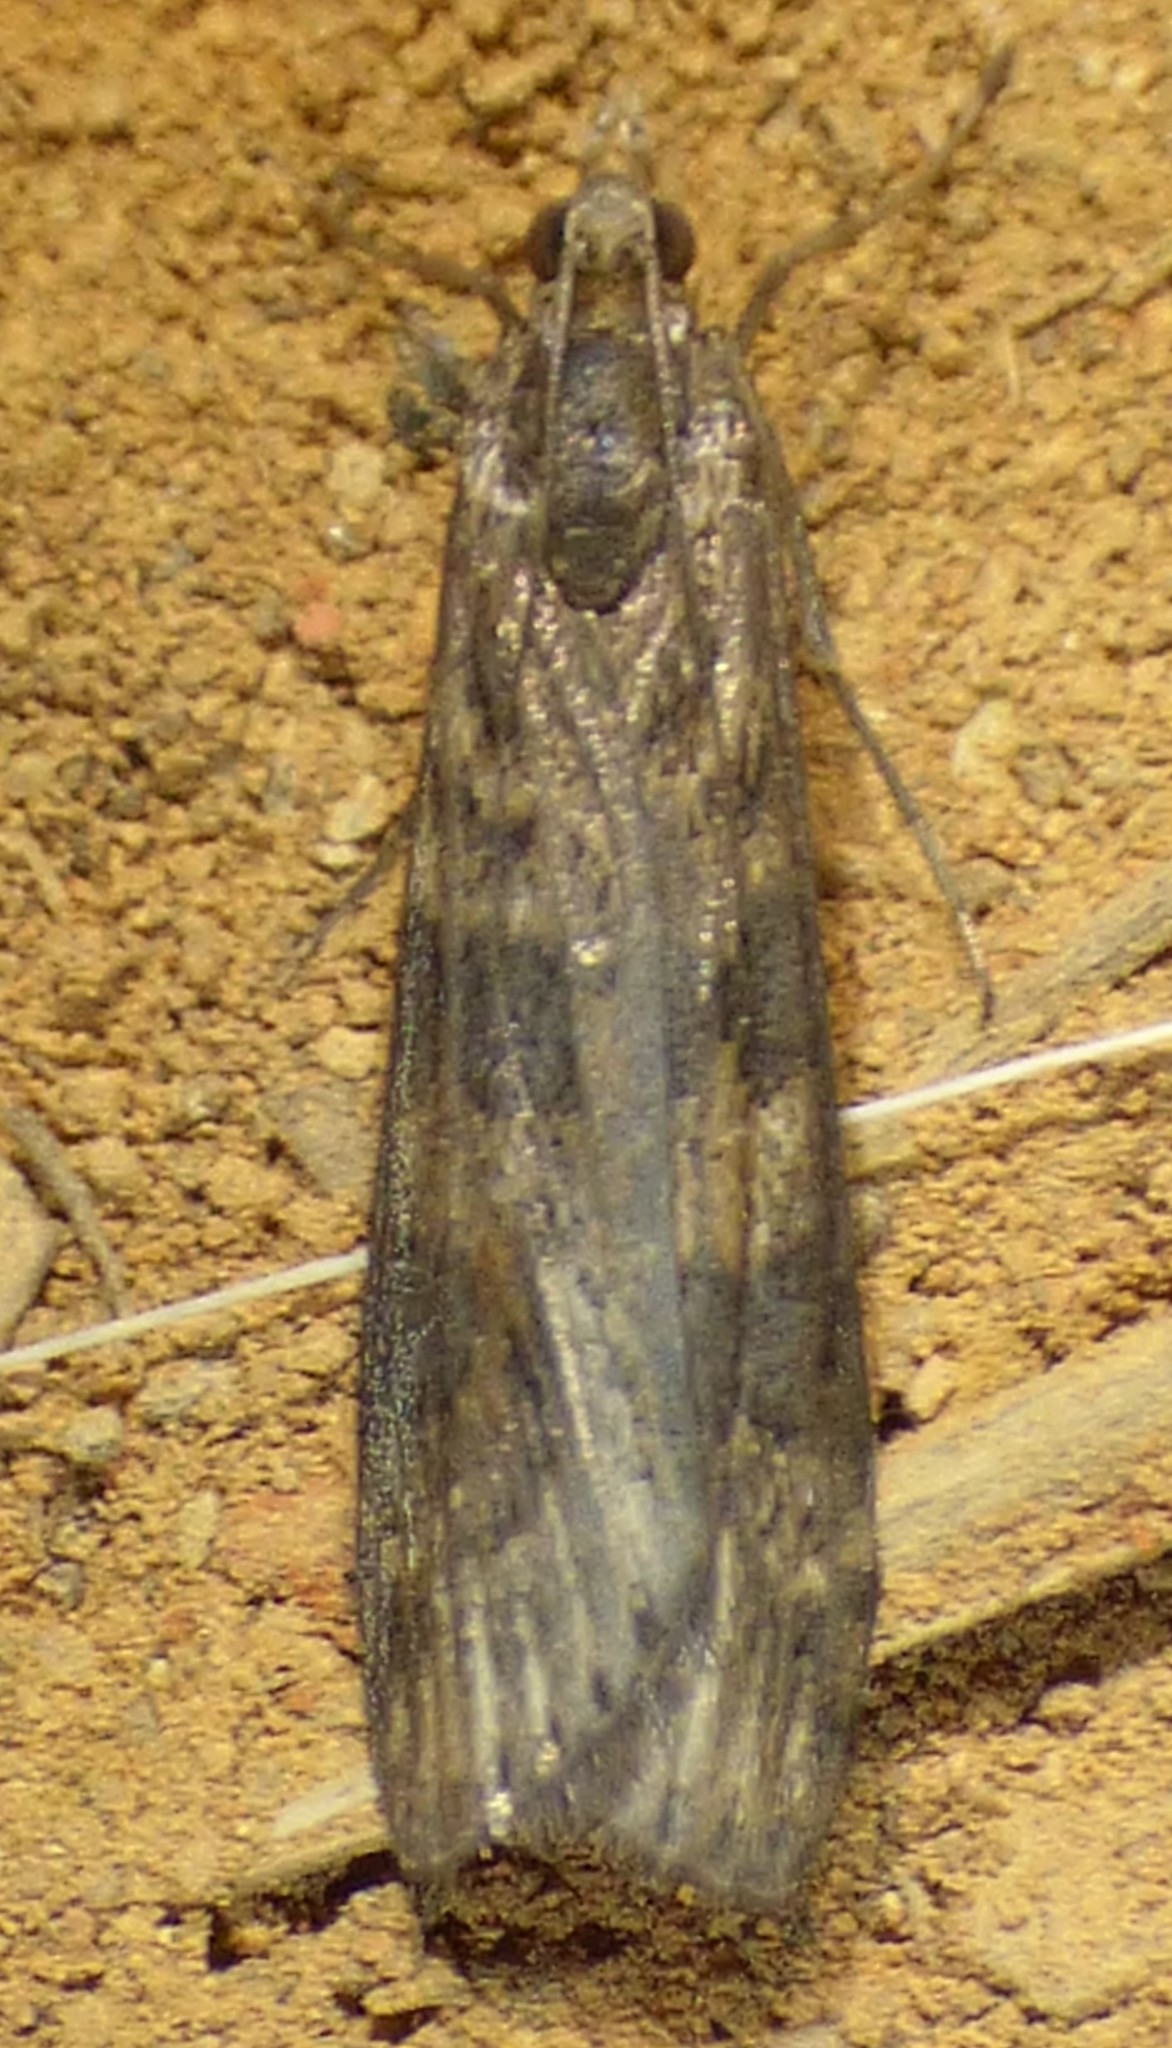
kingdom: Animalia
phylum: Arthropoda
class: Insecta
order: Lepidoptera
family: Crambidae
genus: Nomophila
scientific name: Nomophila nearctica
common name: American rush veneer
